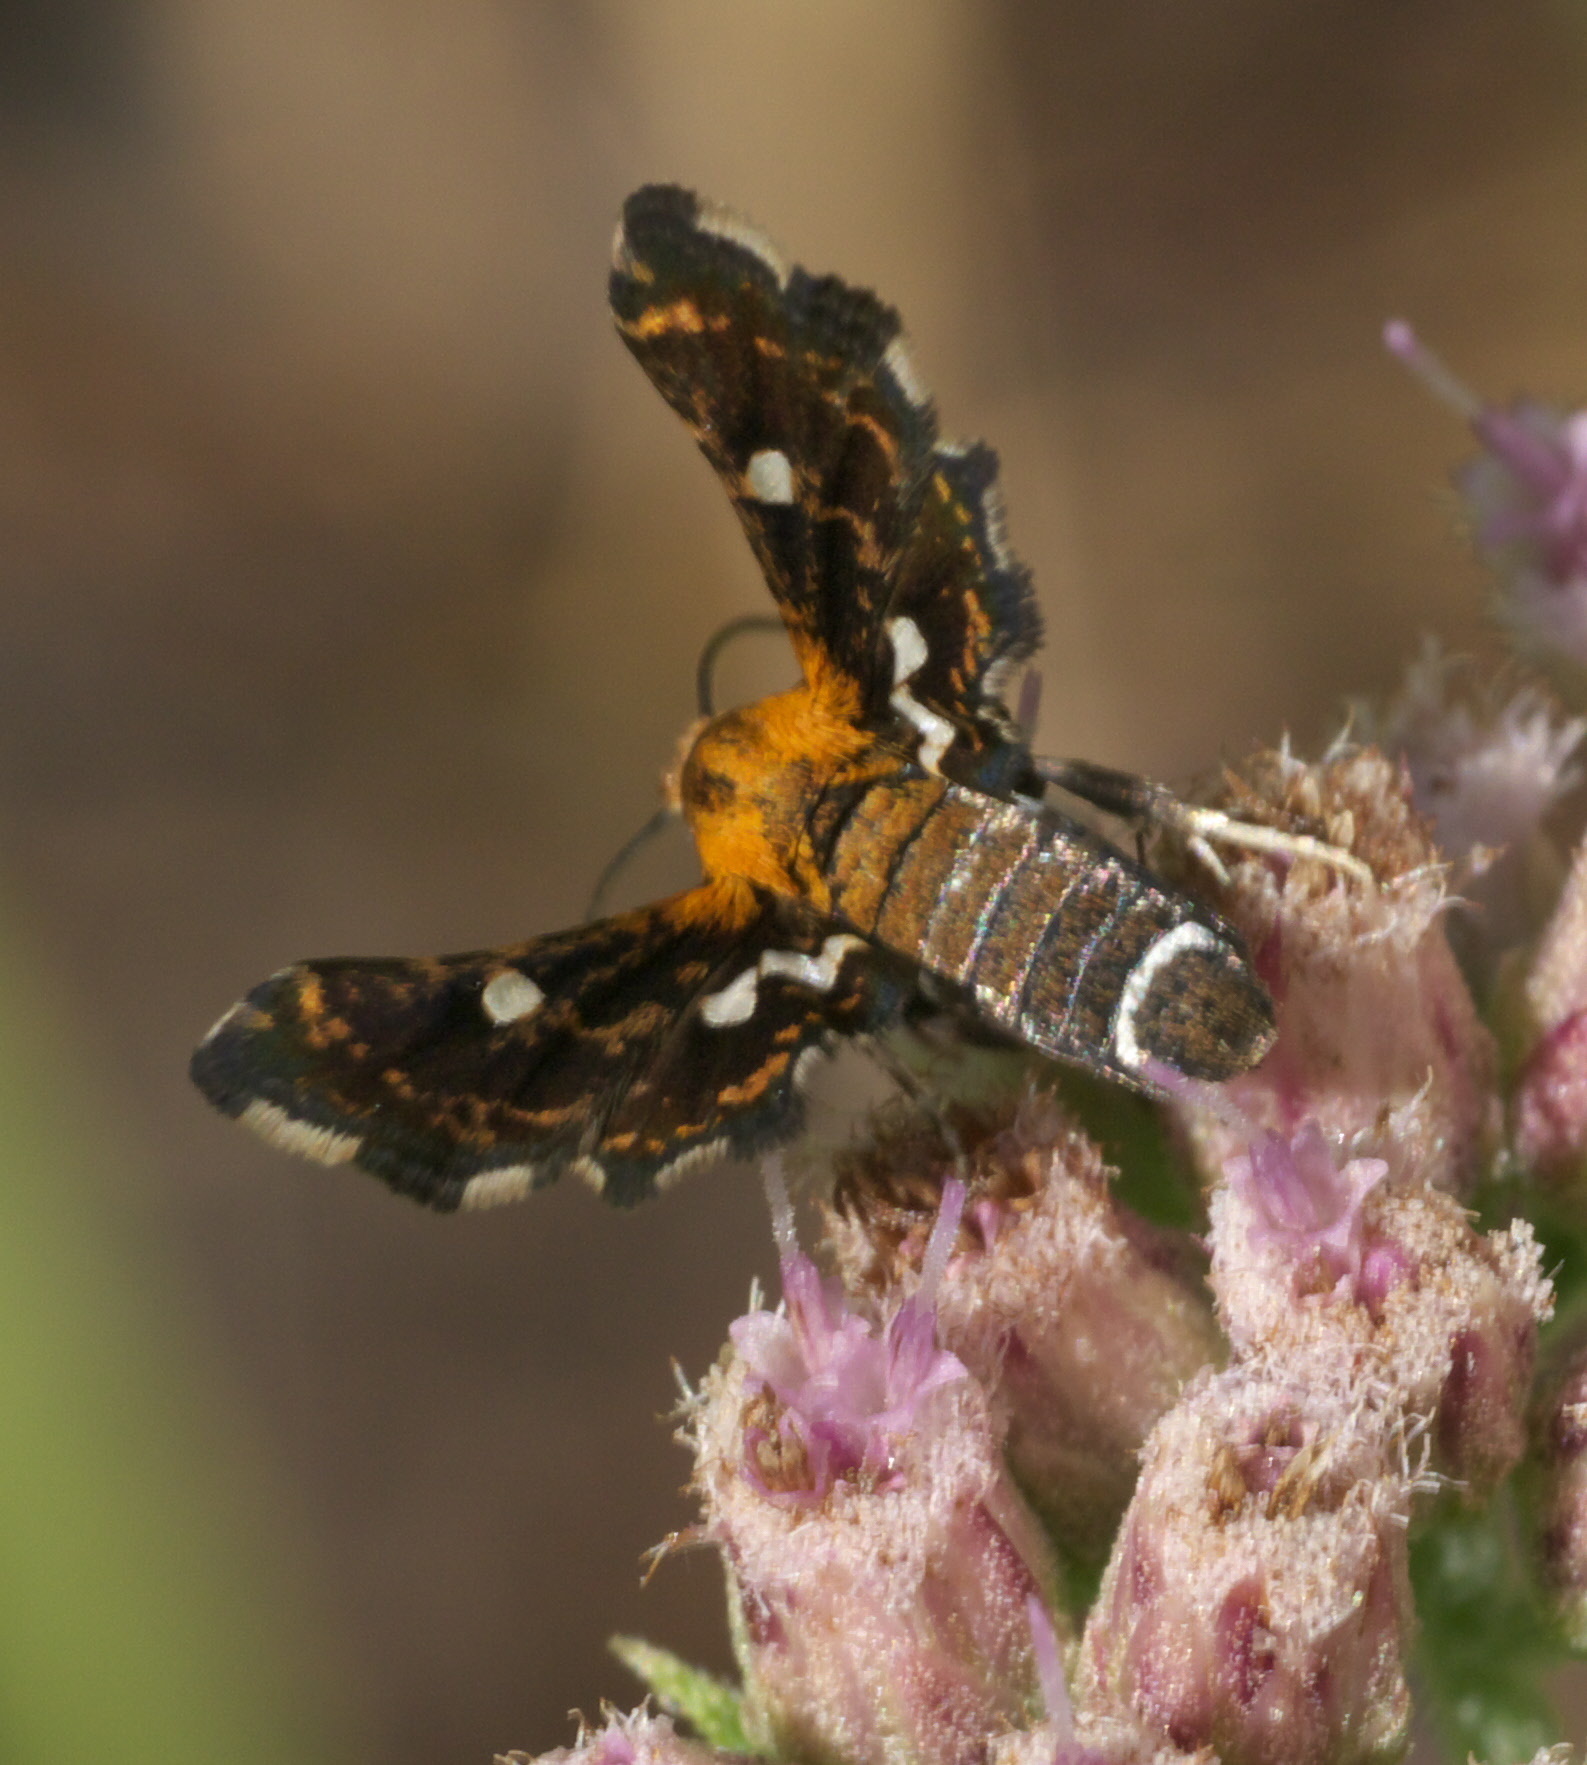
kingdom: Animalia
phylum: Arthropoda
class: Insecta
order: Lepidoptera
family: Thyrididae
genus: Thyris
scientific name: Thyris maculata
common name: Spotted thyris moth
